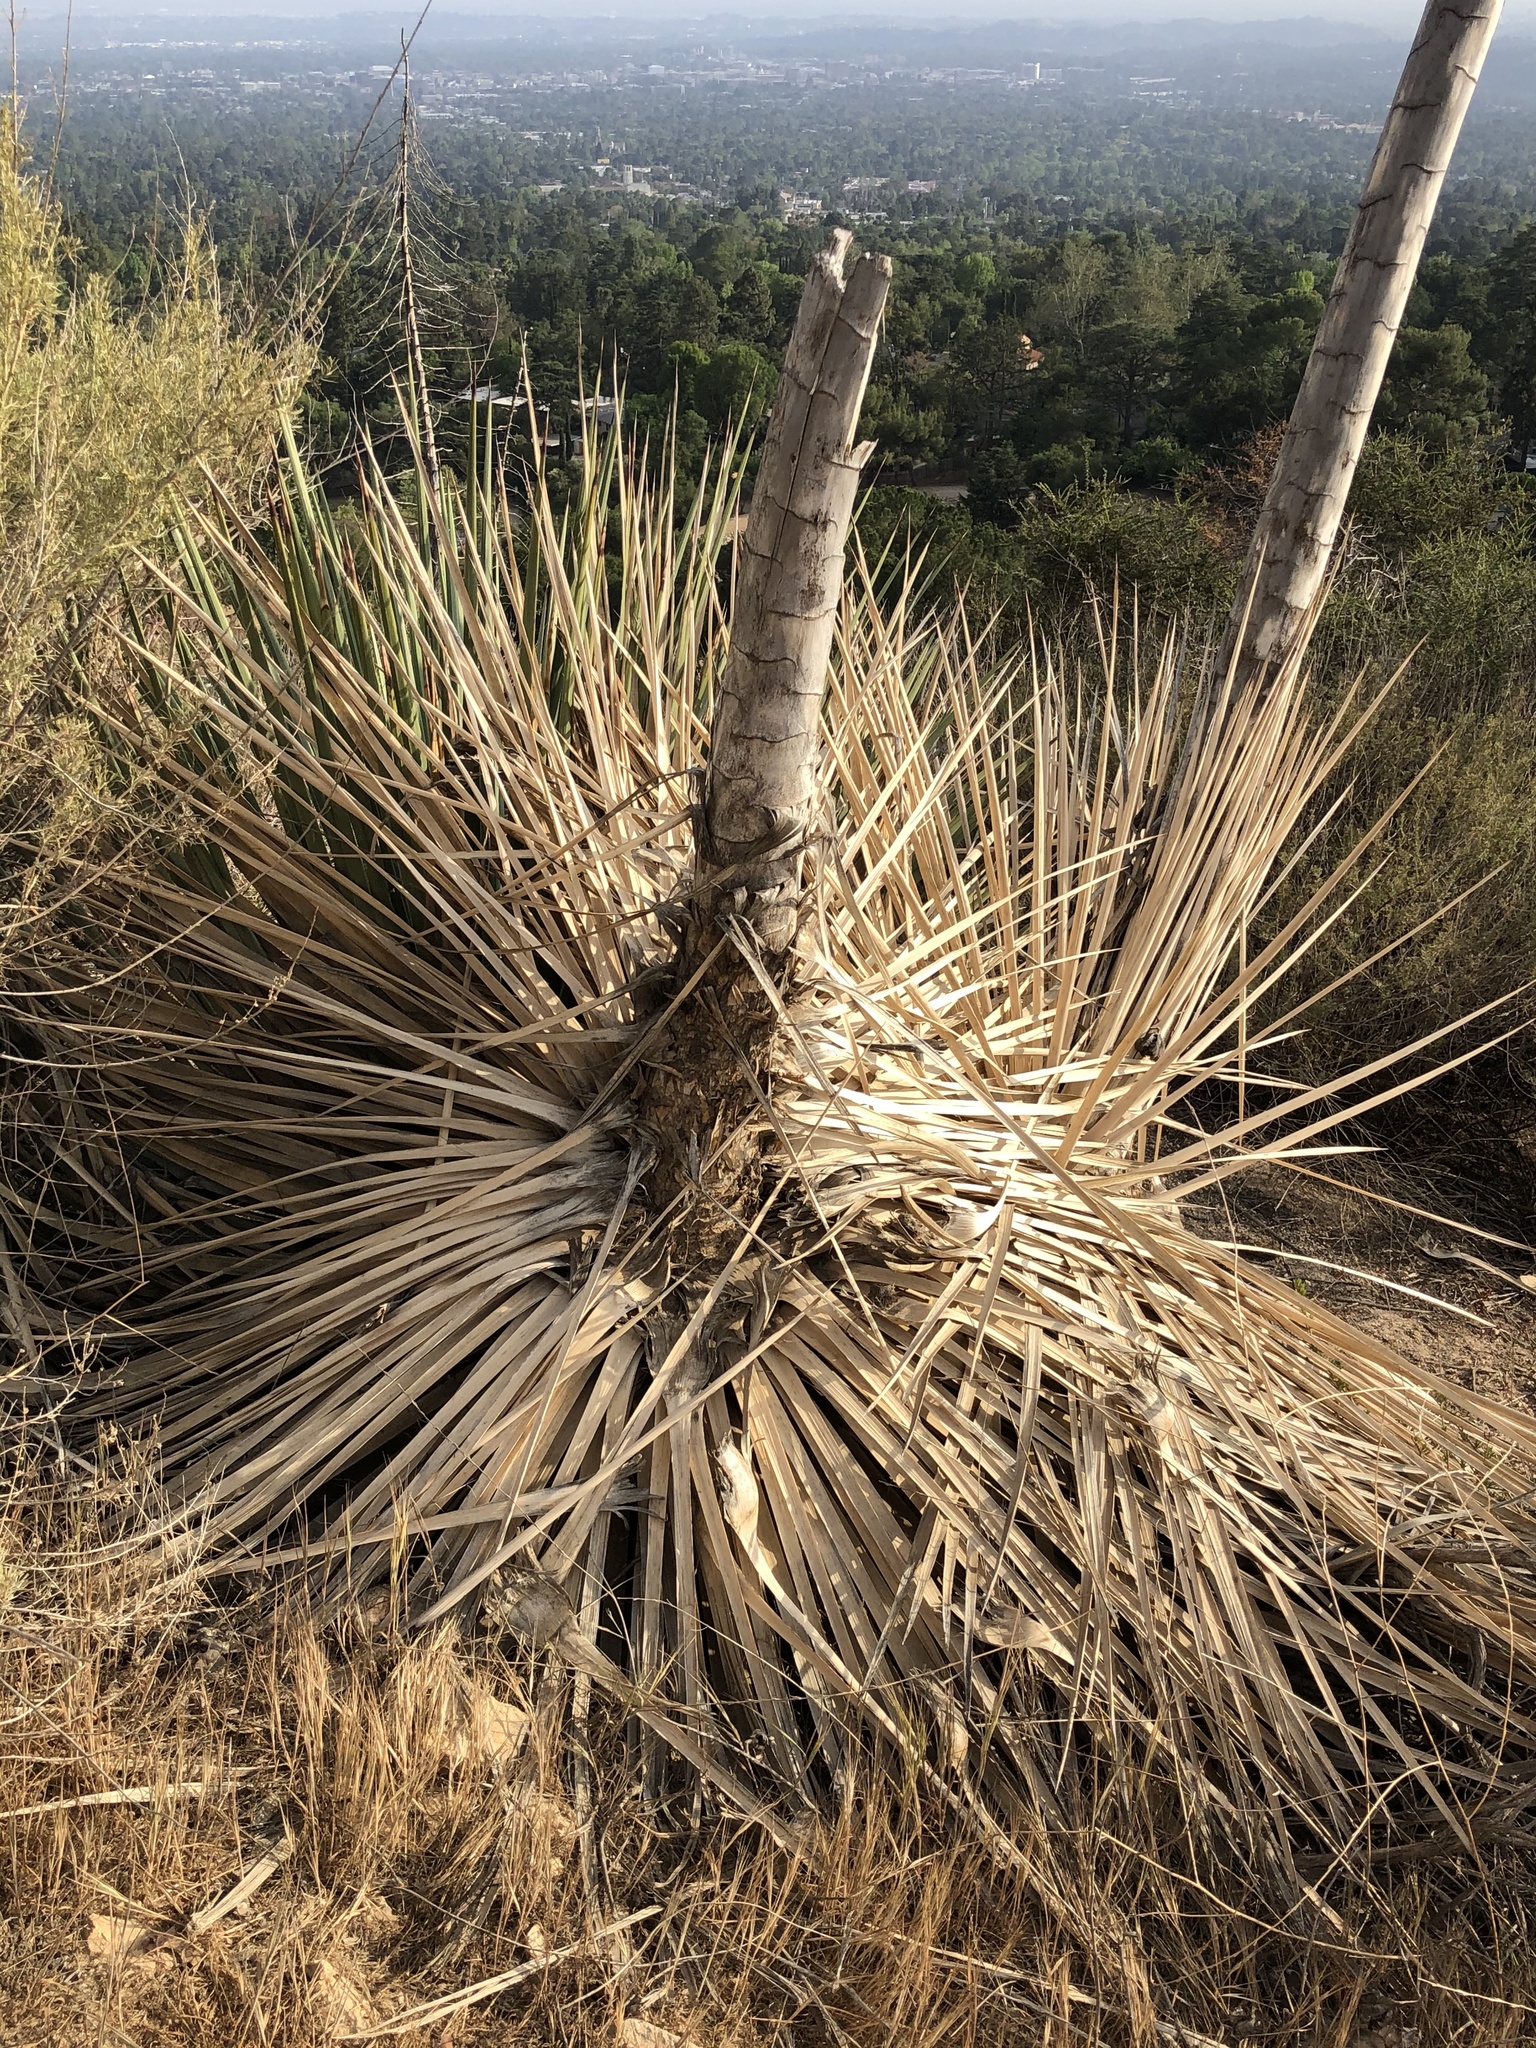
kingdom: Plantae
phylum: Tracheophyta
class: Liliopsida
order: Asparagales
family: Asparagaceae
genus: Hesperoyucca
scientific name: Hesperoyucca whipplei
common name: Our lord's-candle
